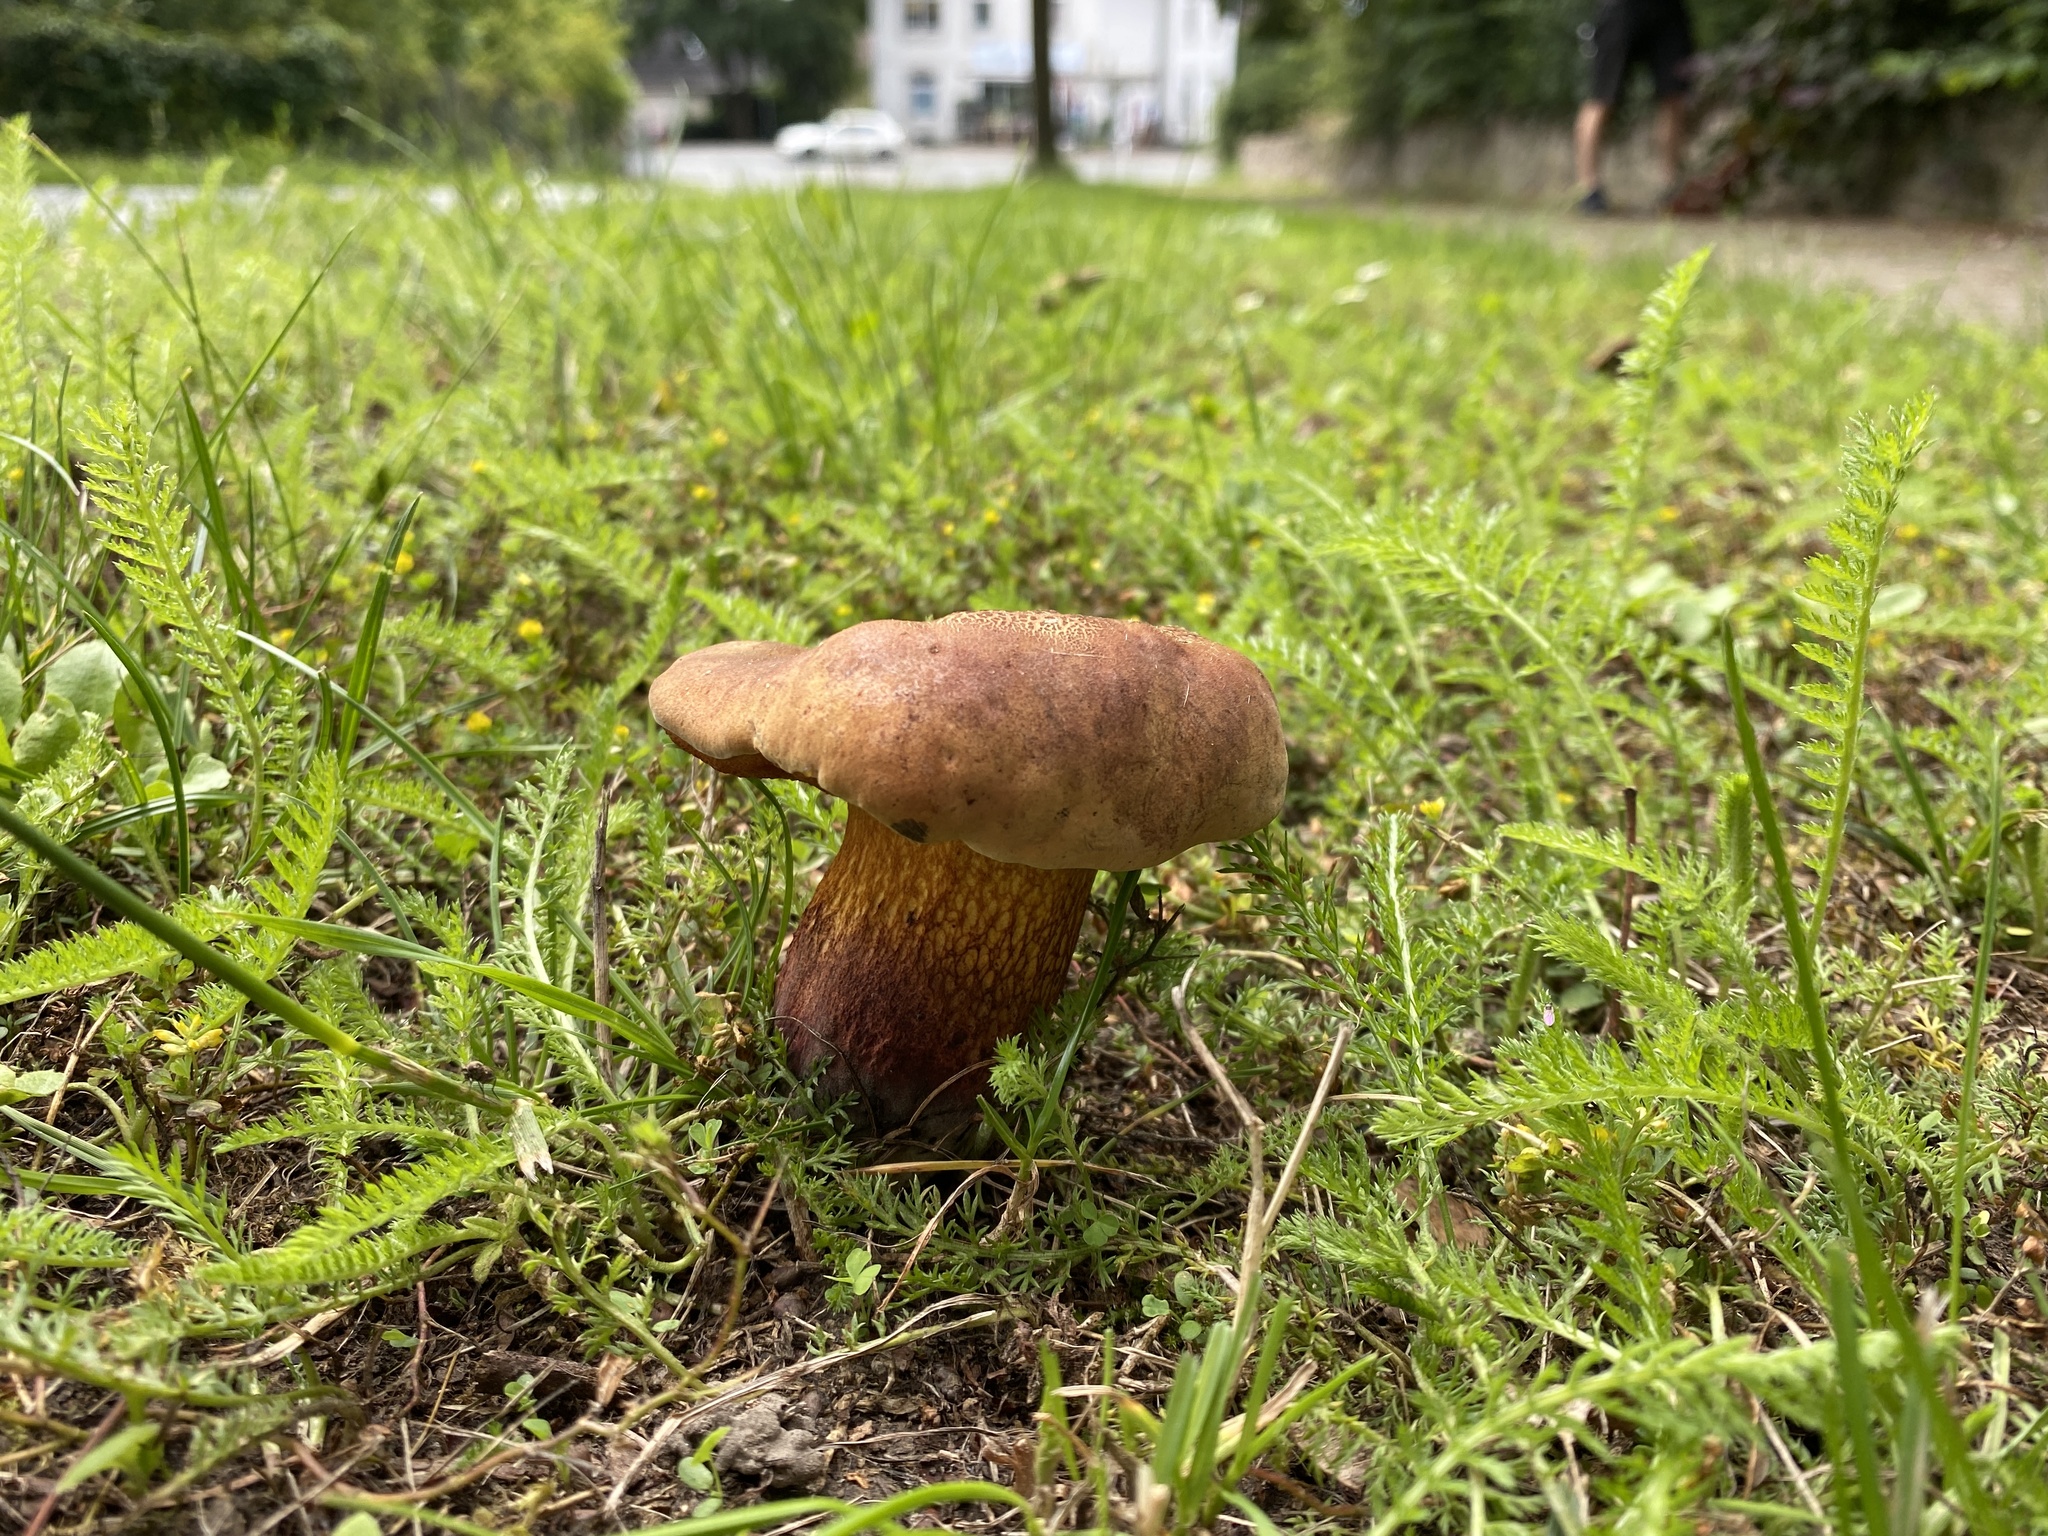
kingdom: Fungi
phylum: Basidiomycota
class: Agaricomycetes
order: Boletales
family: Boletaceae
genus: Suillellus
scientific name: Suillellus luridus
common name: Lurid bolete
